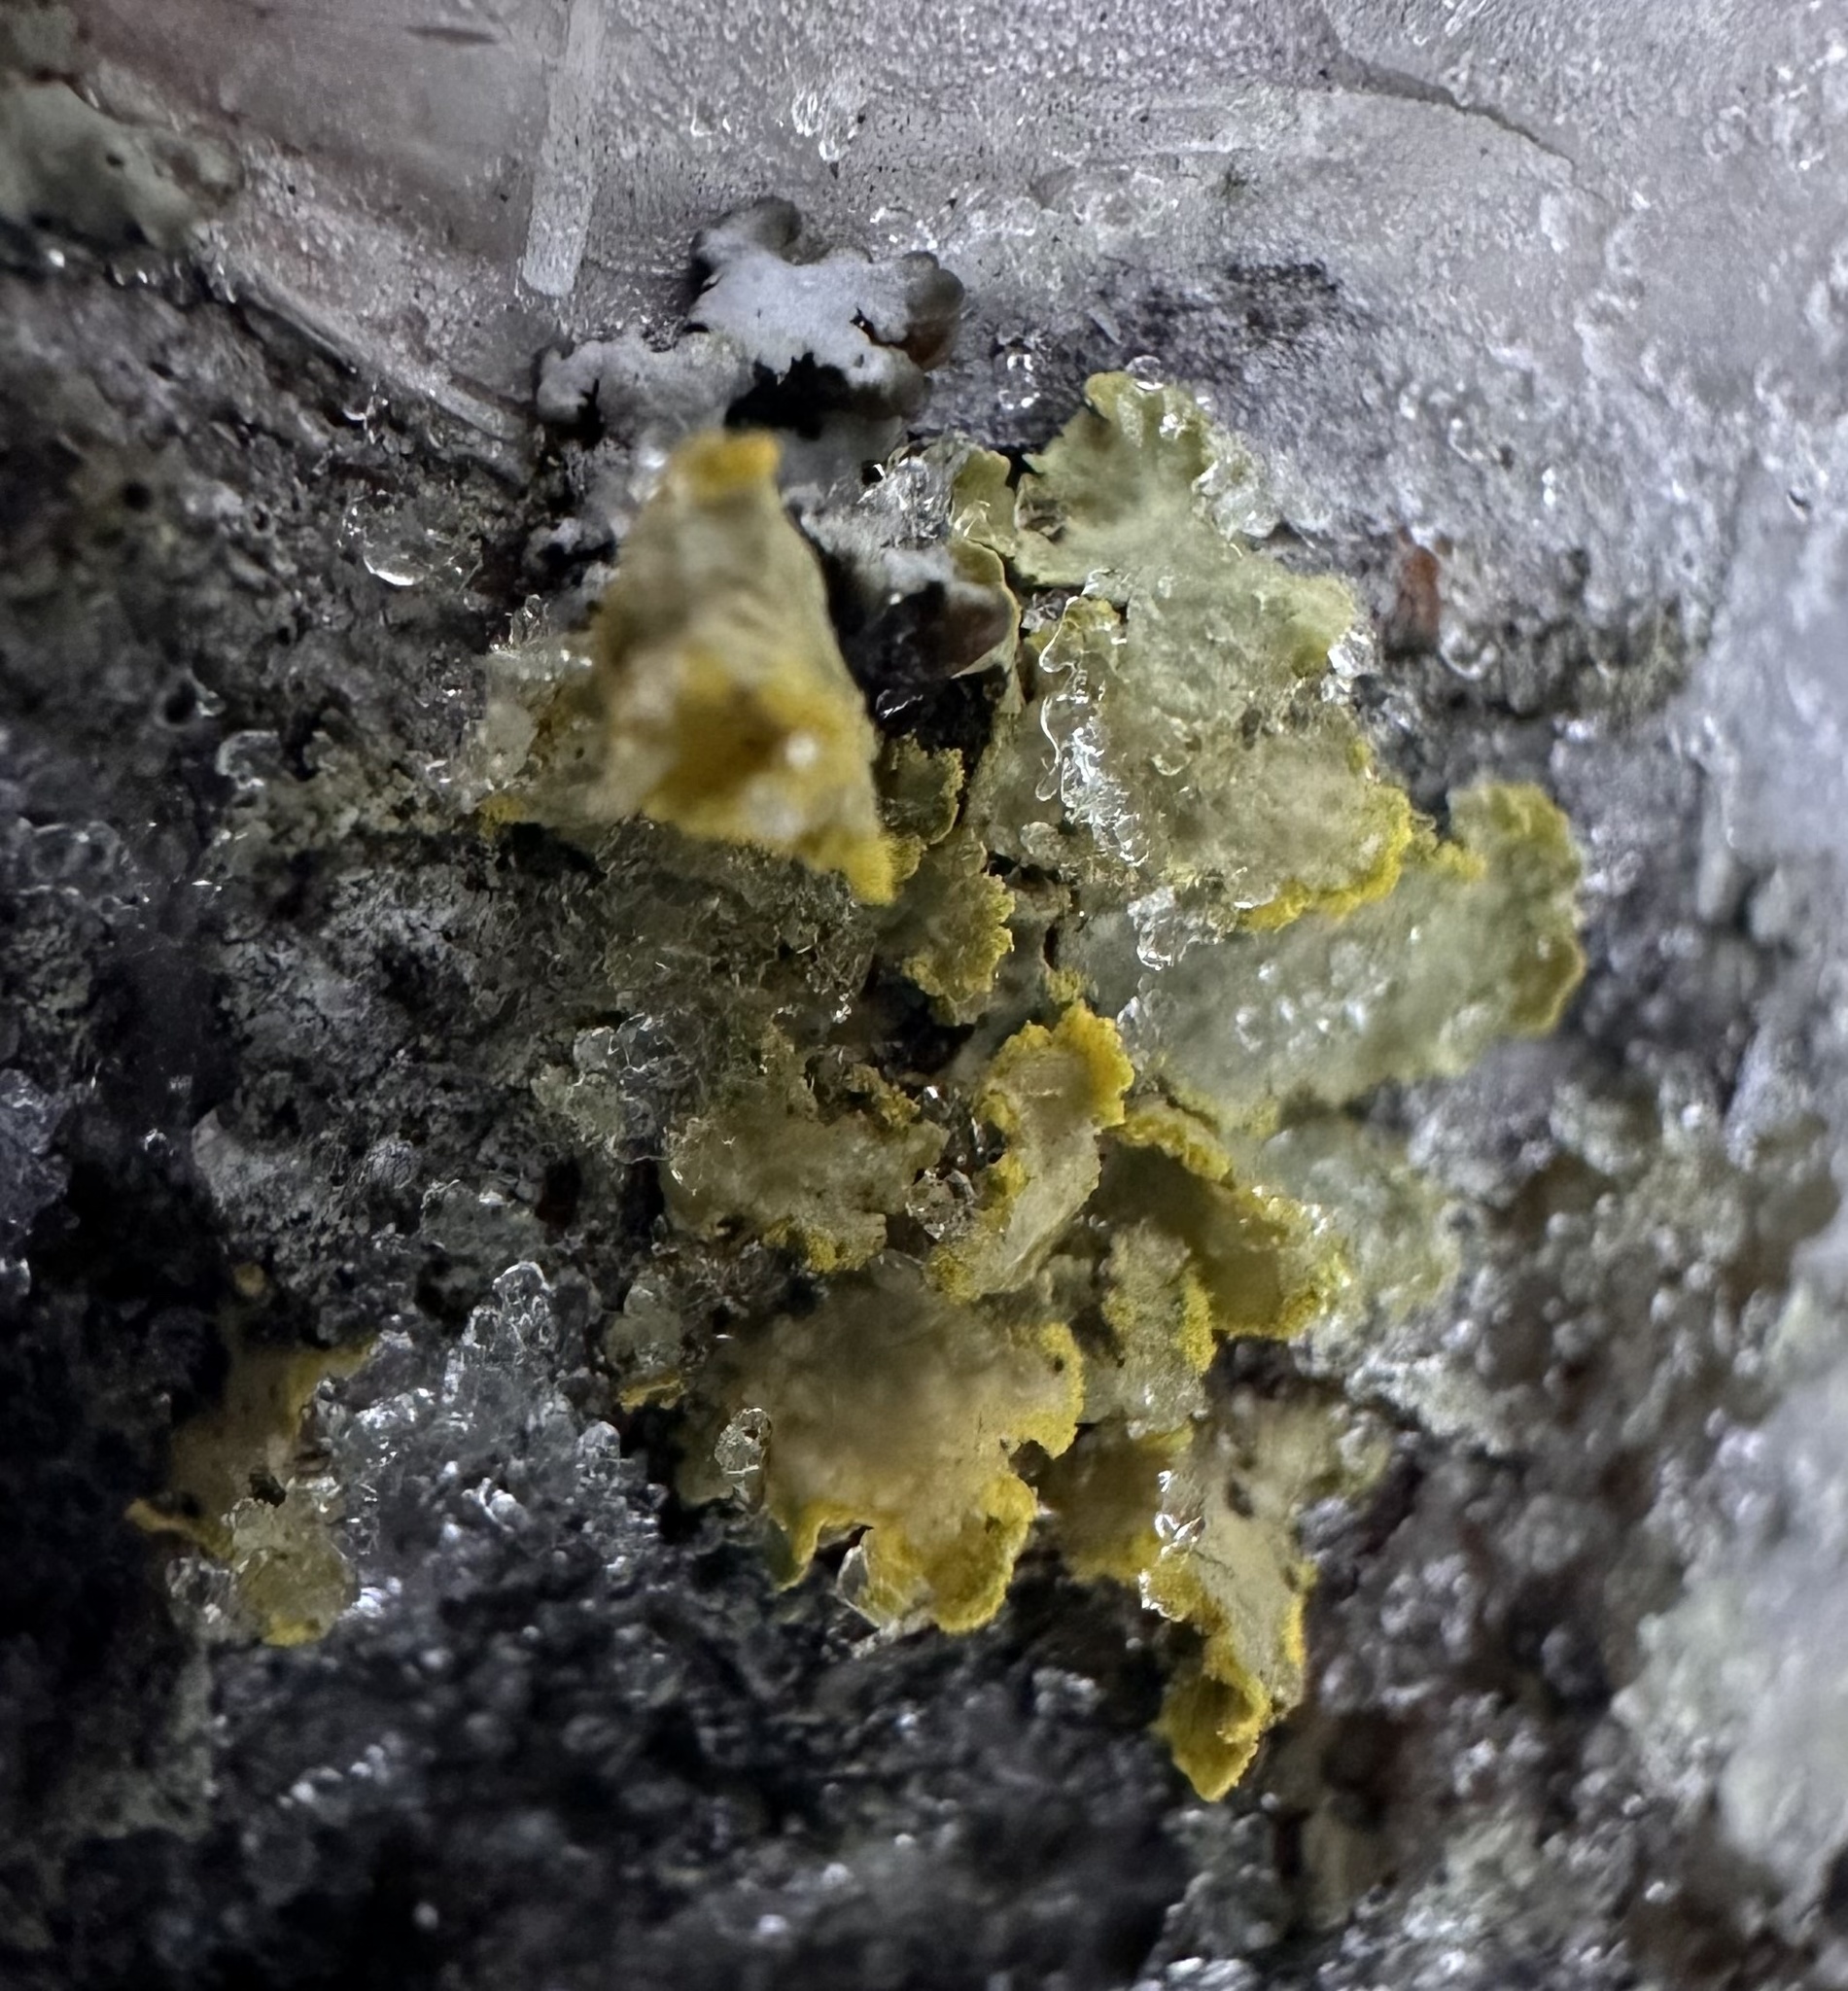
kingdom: Fungi
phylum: Ascomycota
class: Lecanoromycetes
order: Lecanorales
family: Parmeliaceae
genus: Vulpicida
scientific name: Vulpicida pinastri
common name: Powdered sunshine lichen
